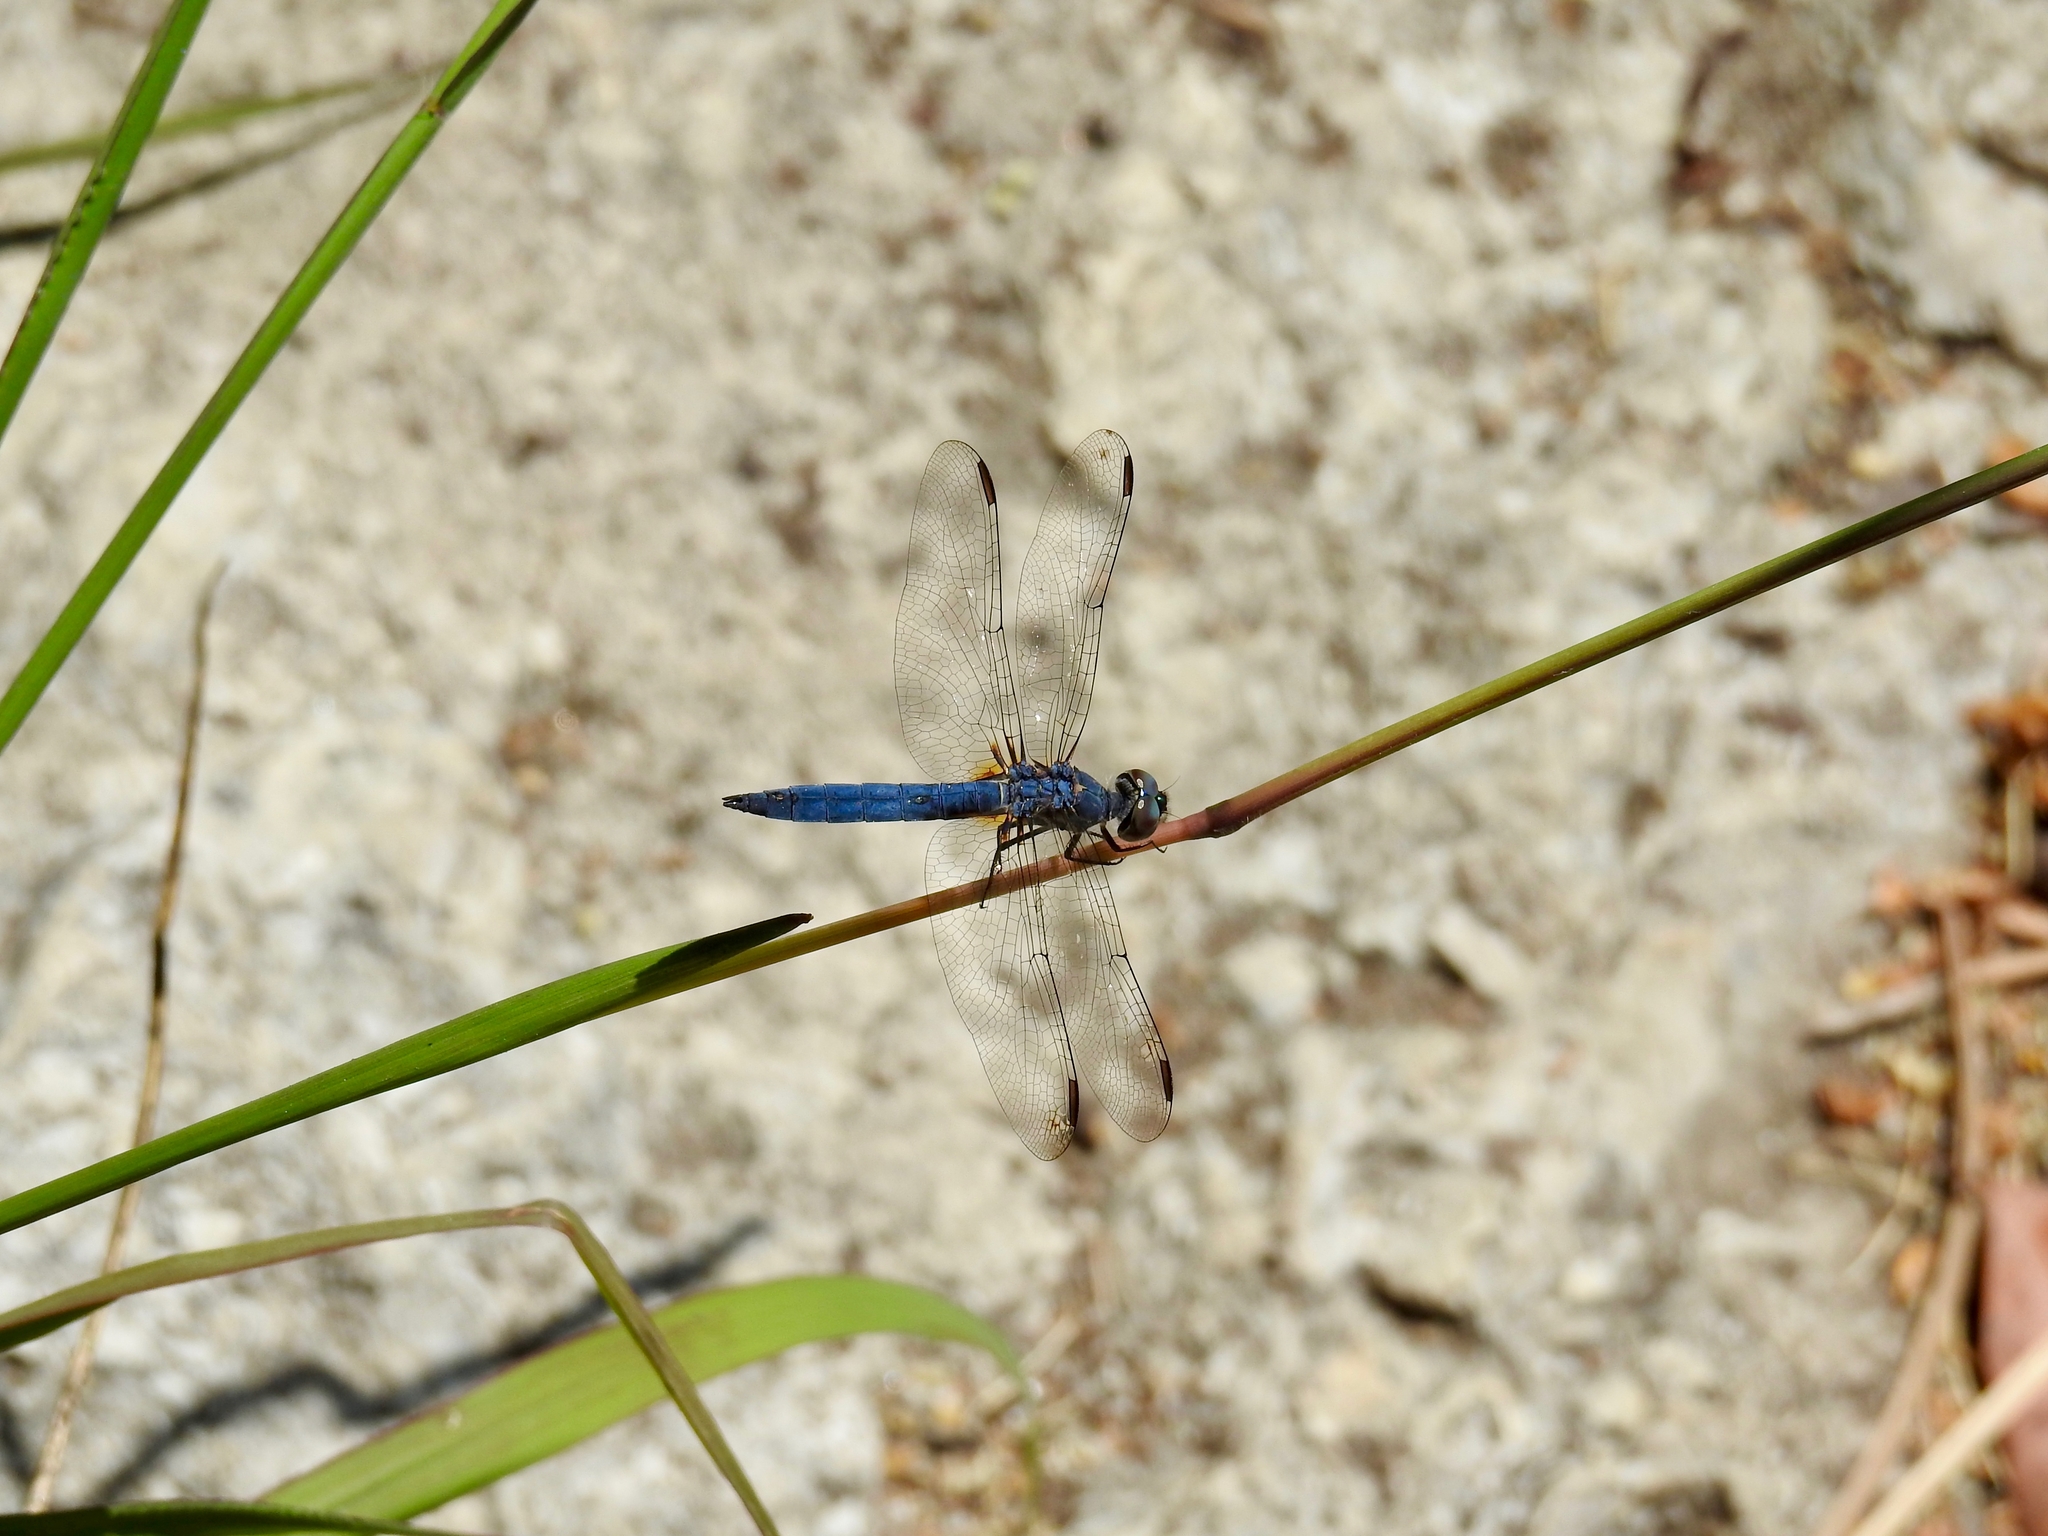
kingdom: Animalia
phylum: Arthropoda
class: Insecta
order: Odonata
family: Libellulidae
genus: Pachydiplax
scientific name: Pachydiplax longipennis
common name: Blue dasher
